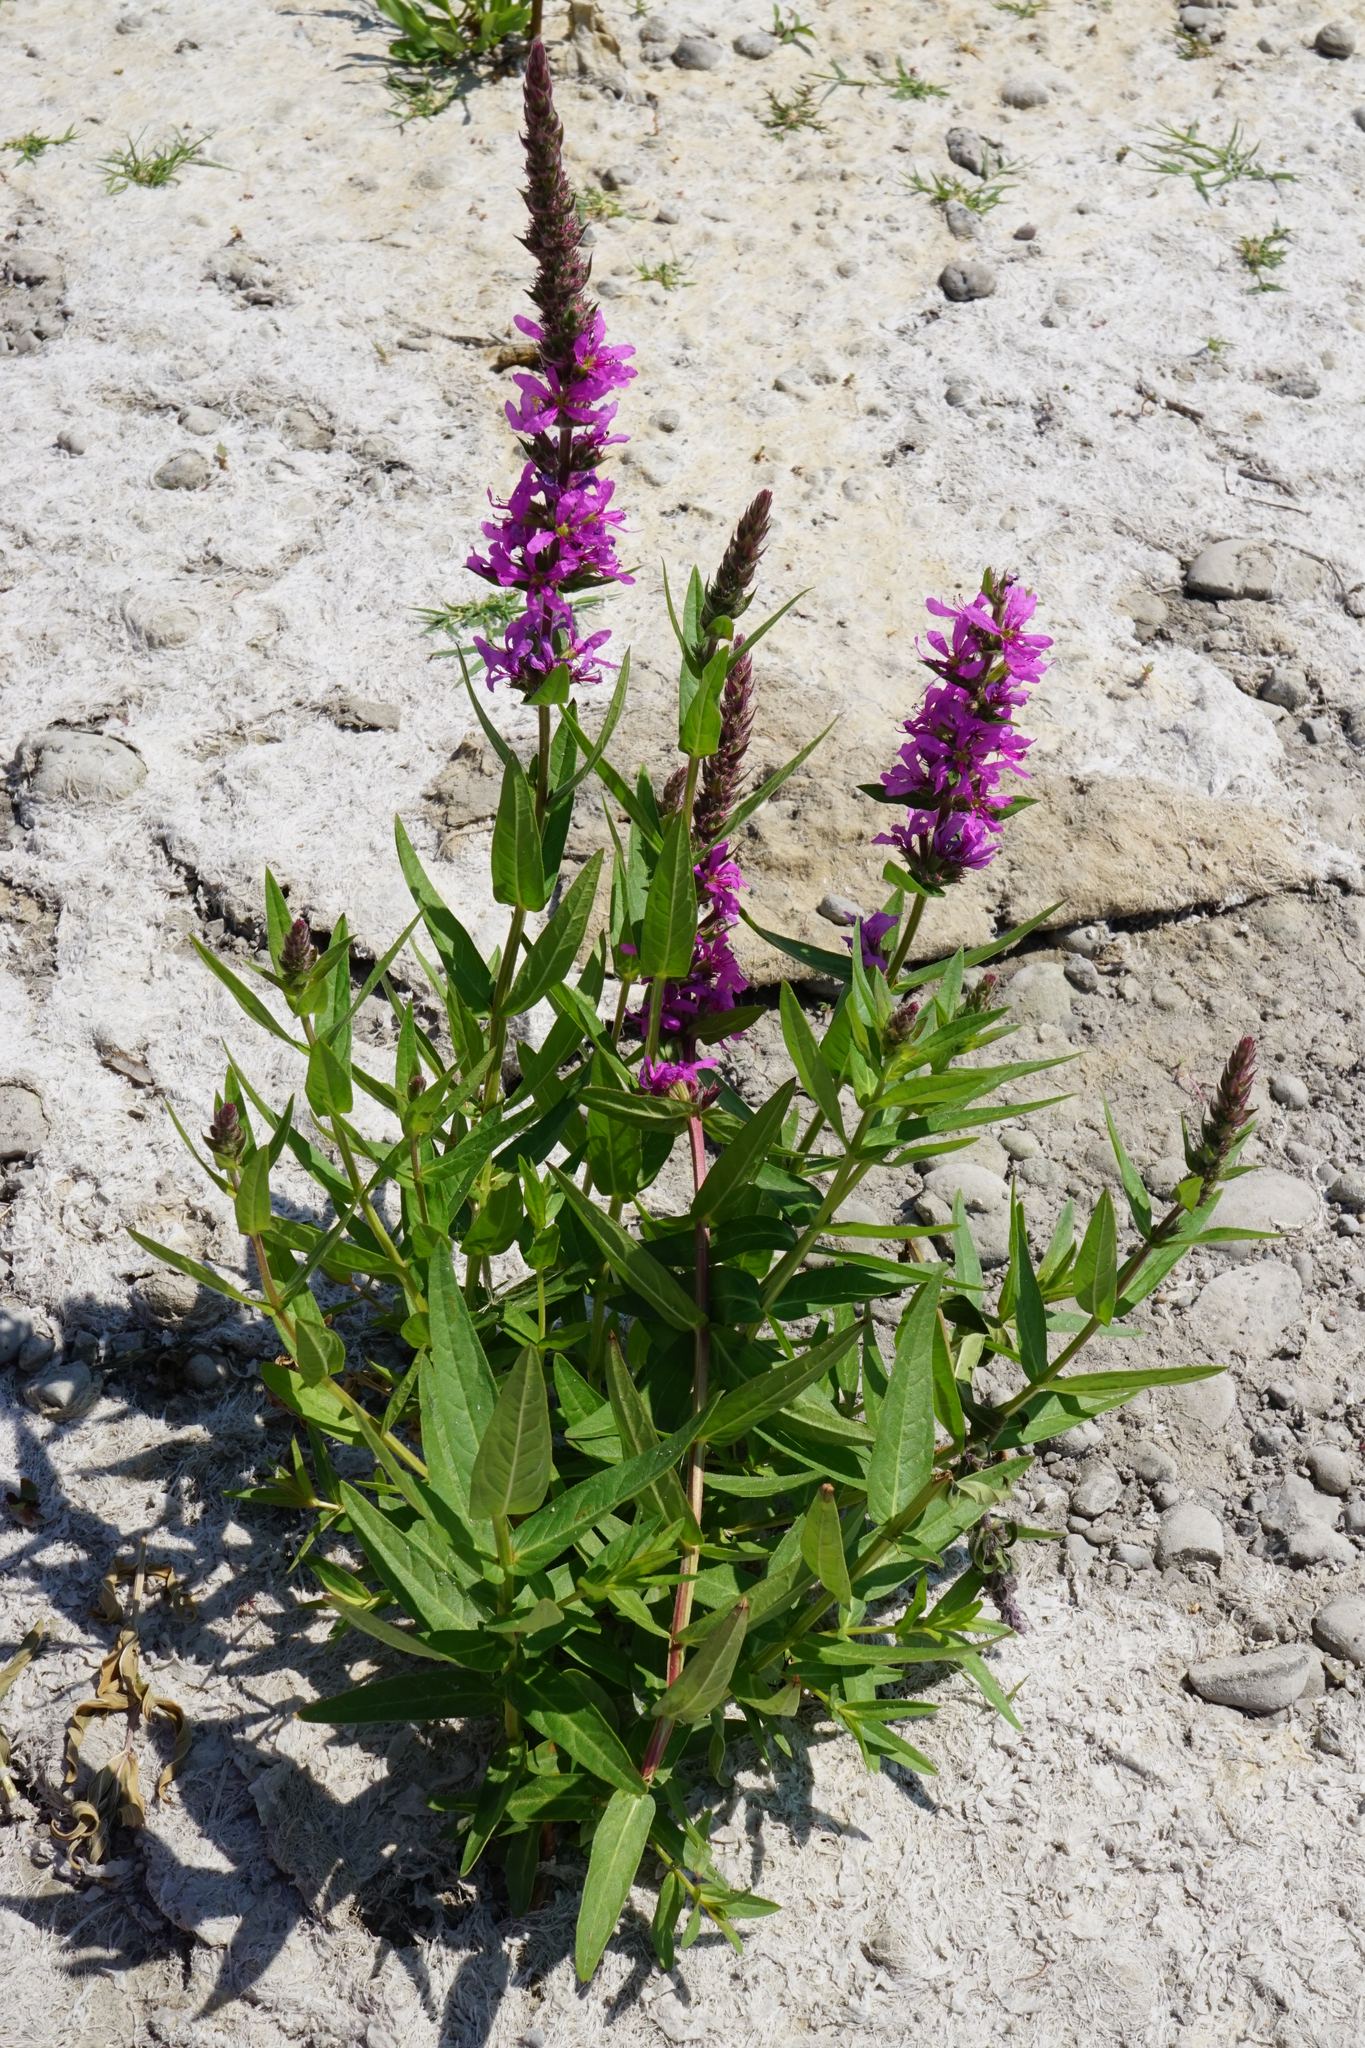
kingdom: Plantae
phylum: Tracheophyta
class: Magnoliopsida
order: Myrtales
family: Lythraceae
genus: Lythrum
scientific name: Lythrum salicaria
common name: Purple loosestrife
